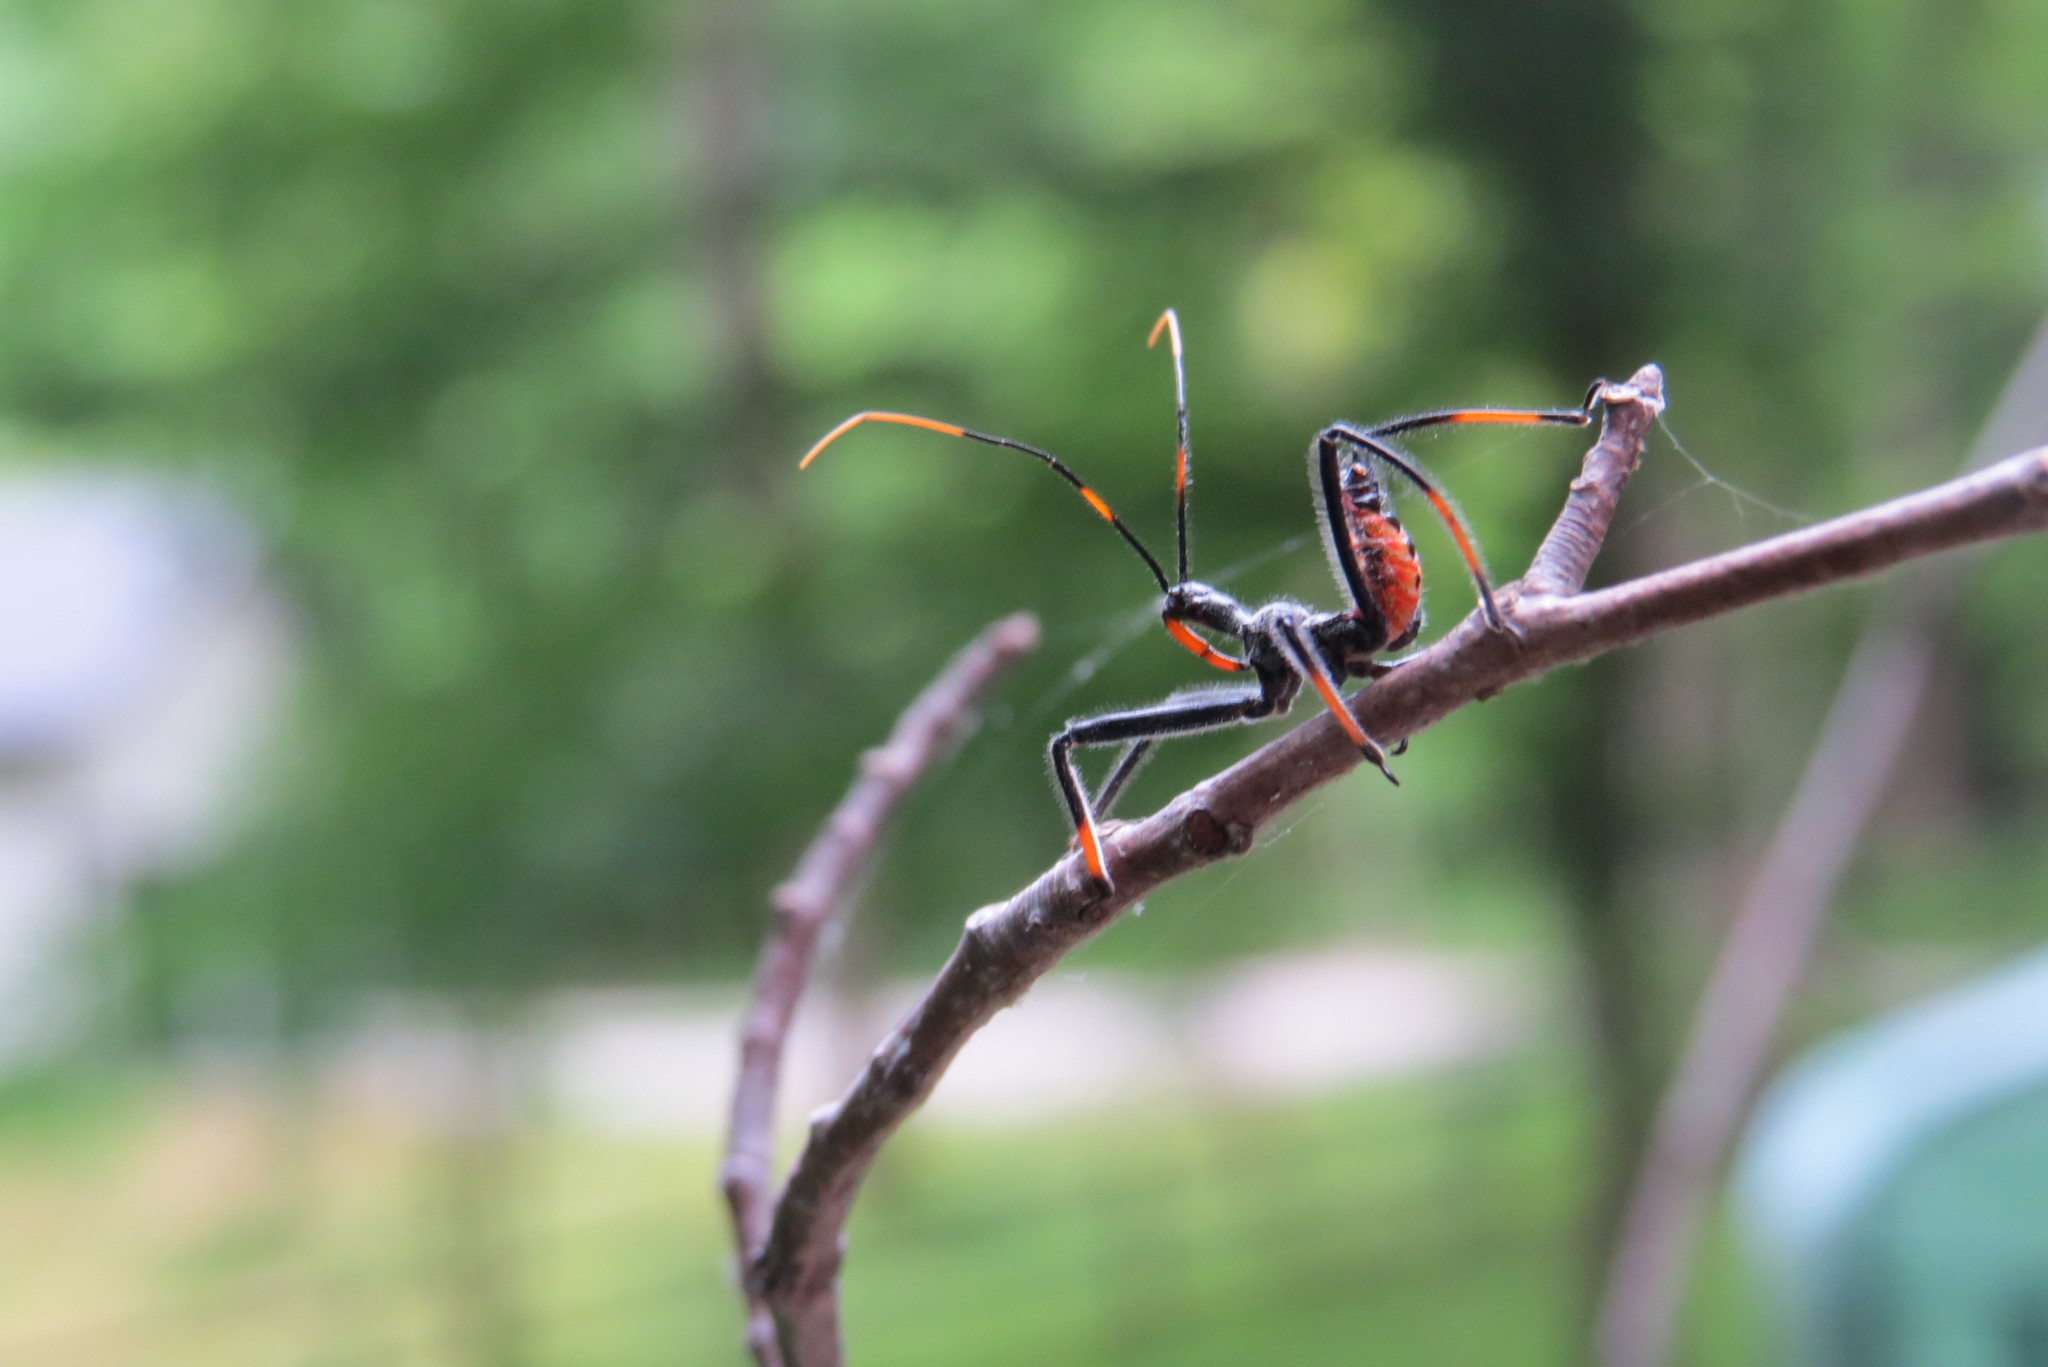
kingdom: Animalia
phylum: Arthropoda
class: Insecta
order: Hemiptera
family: Reduviidae
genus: Arilus
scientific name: Arilus cristatus
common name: North american wheel bug
